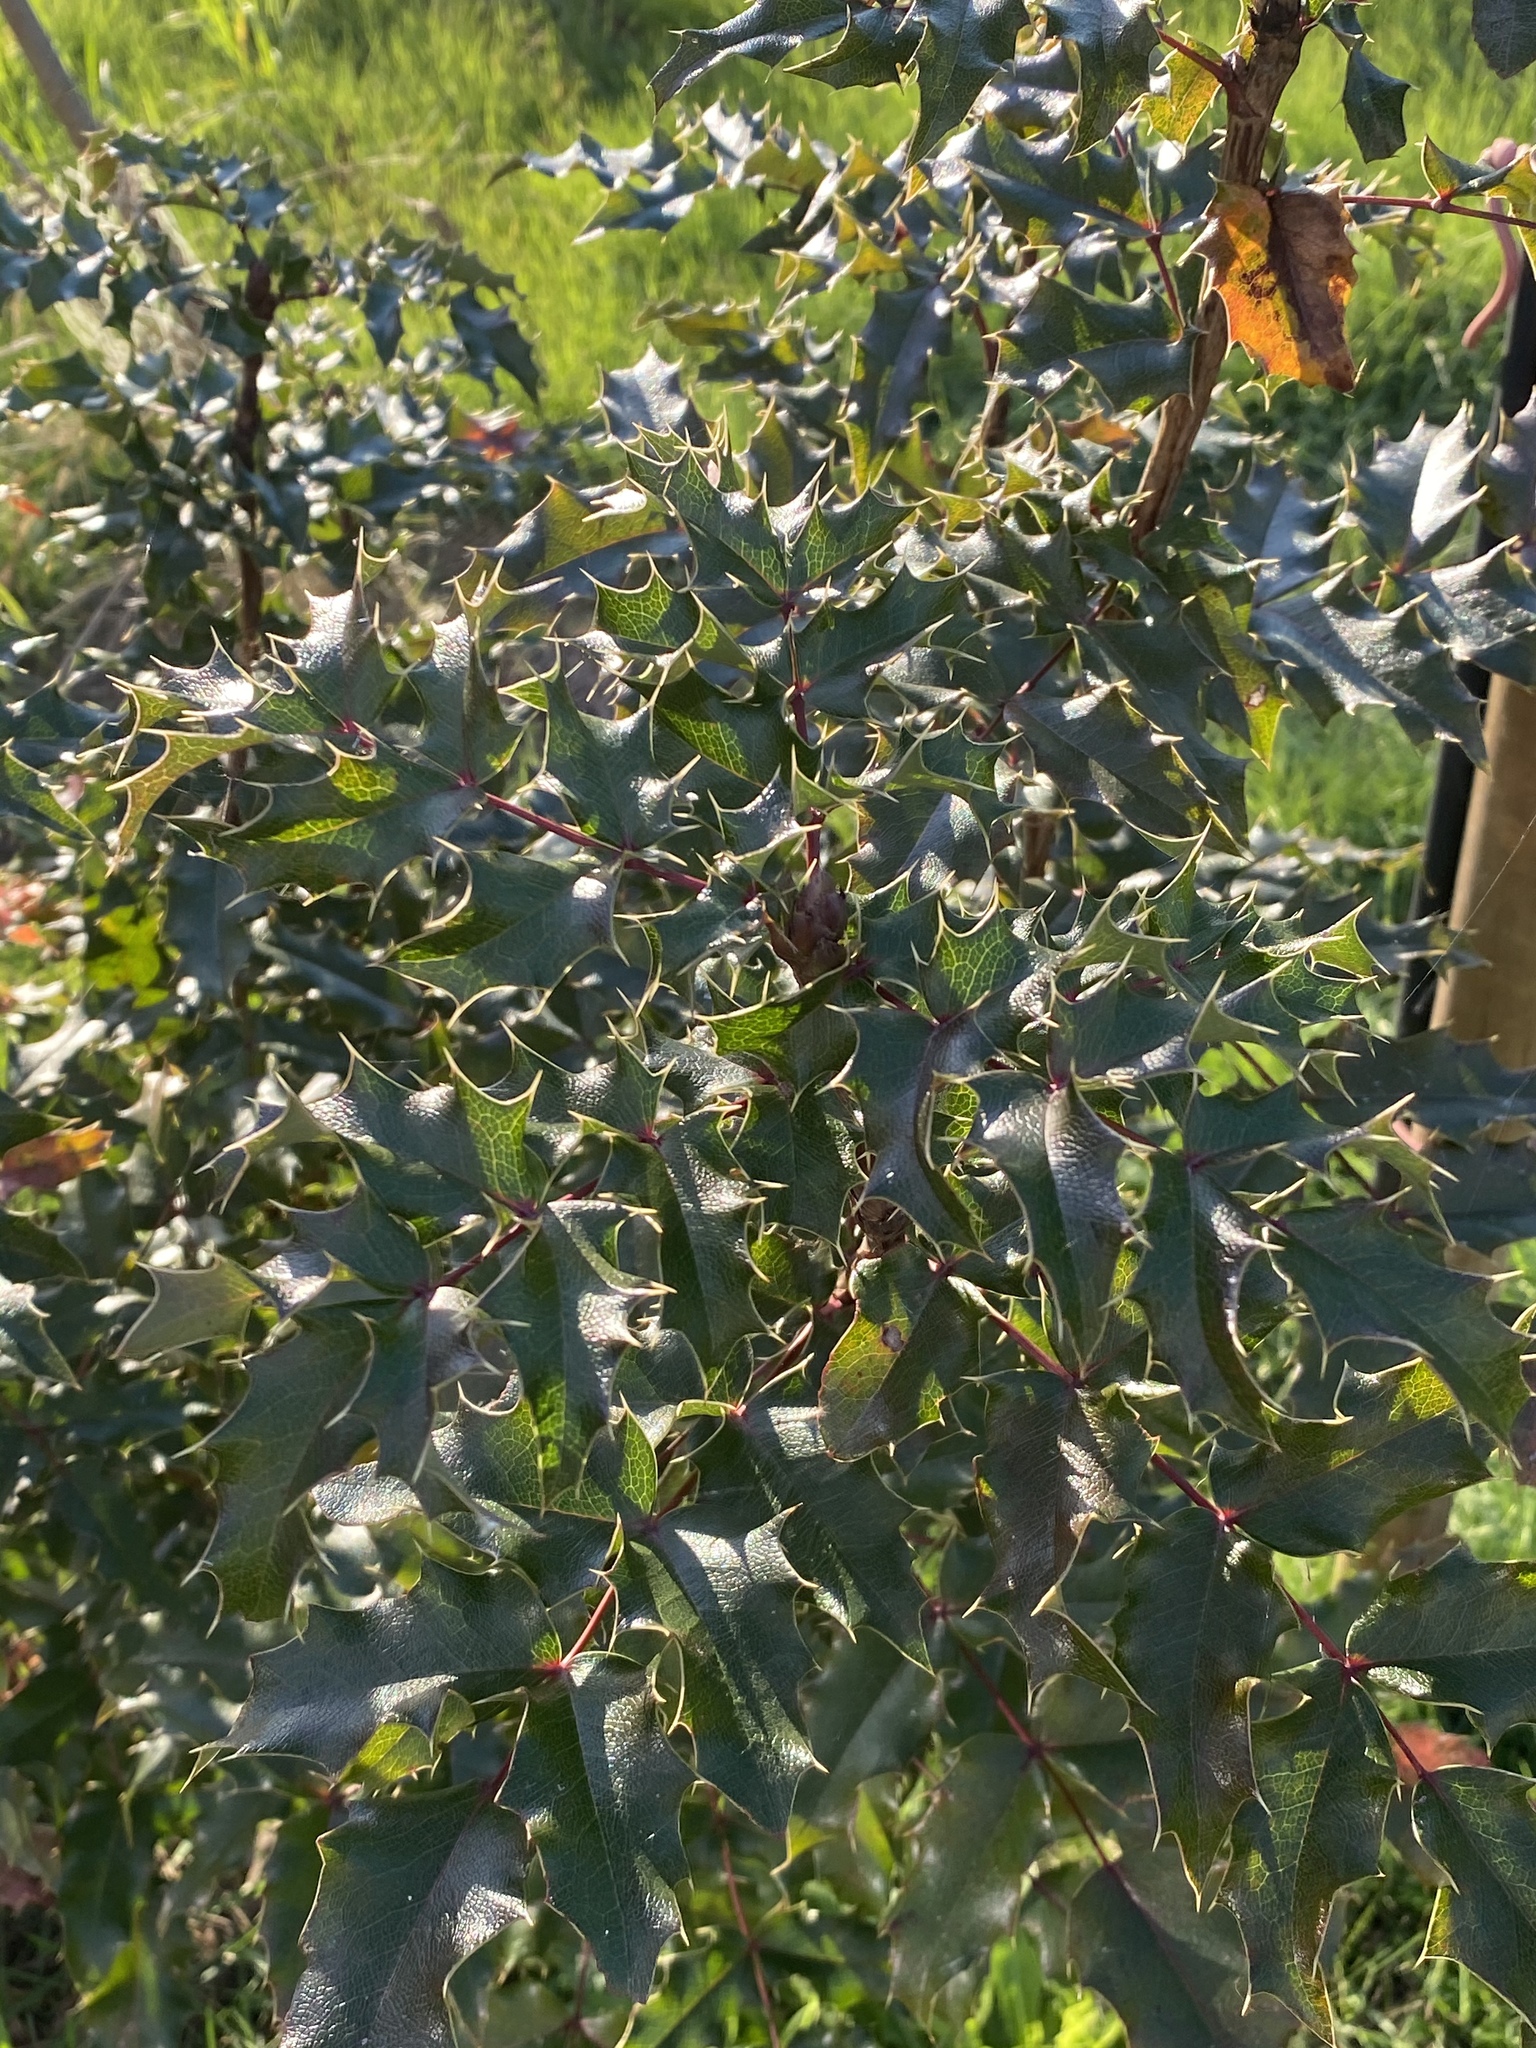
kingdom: Plantae
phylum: Tracheophyta
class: Magnoliopsida
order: Ranunculales
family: Berberidaceae
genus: Mahonia
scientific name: Mahonia aquifolium
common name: Oregon-grape
